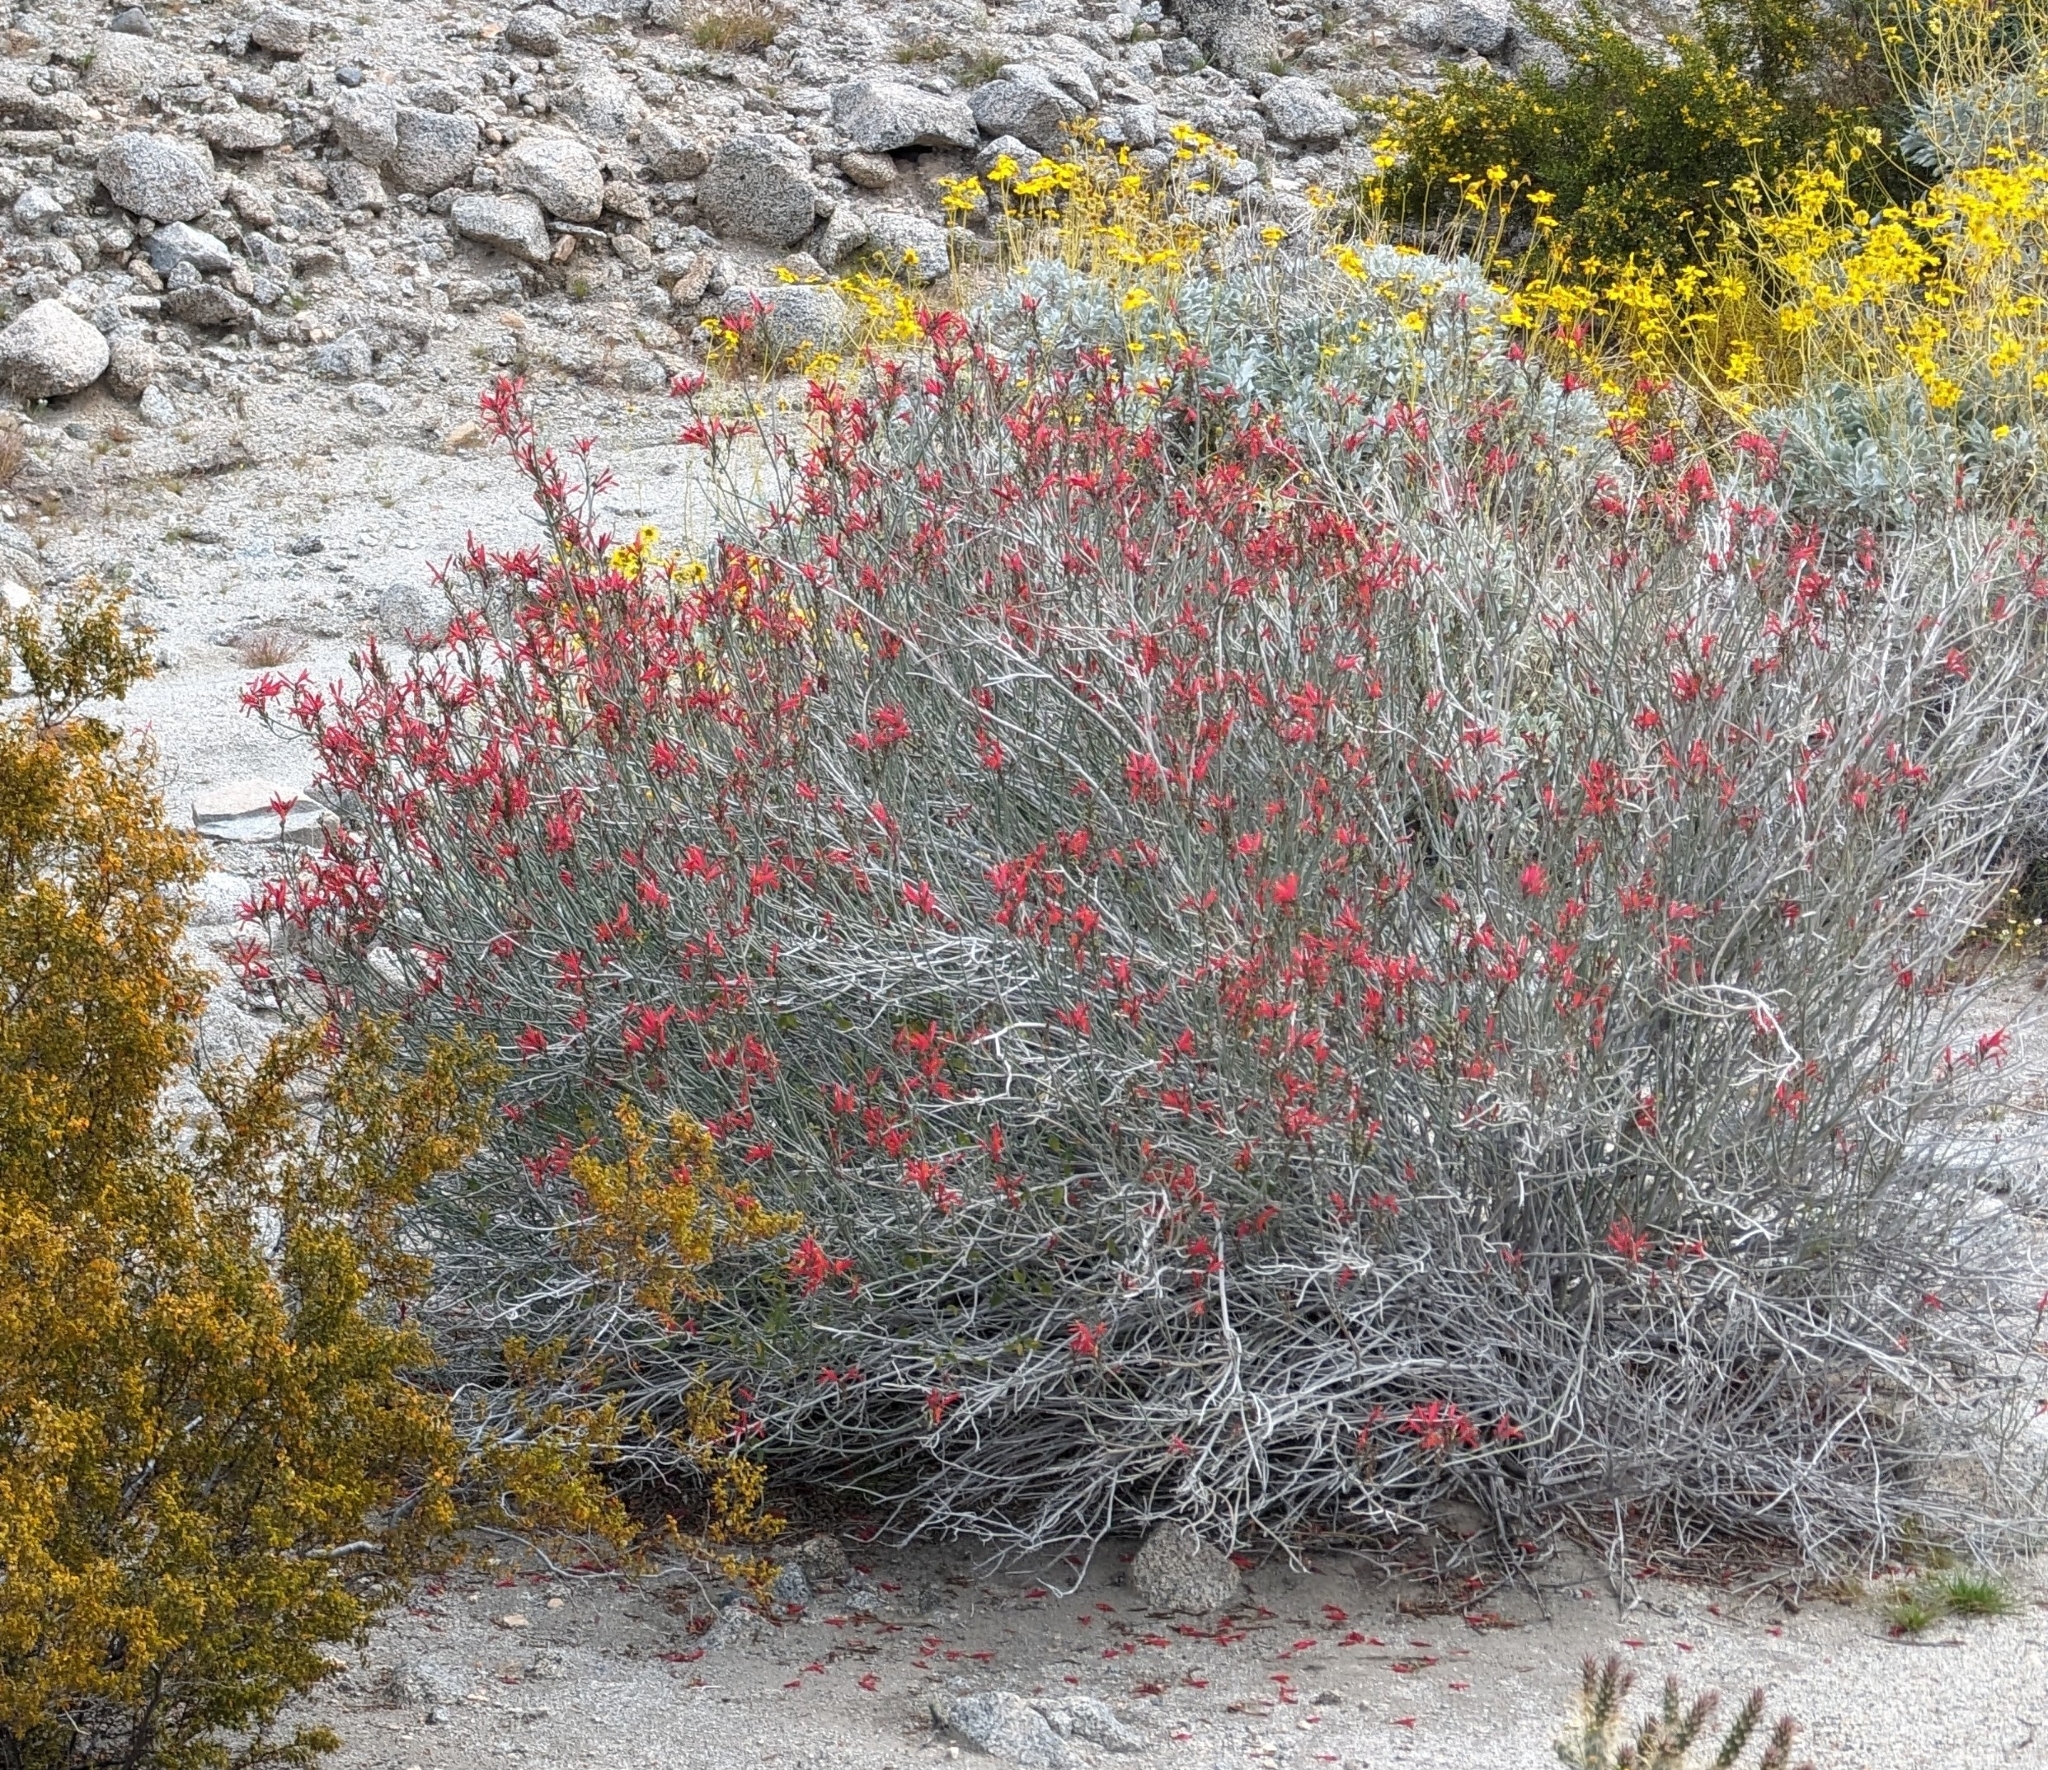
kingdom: Plantae
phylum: Tracheophyta
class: Magnoliopsida
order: Lamiales
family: Acanthaceae
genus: Justicia
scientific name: Justicia californica
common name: Chuparosa-honeysuckle
